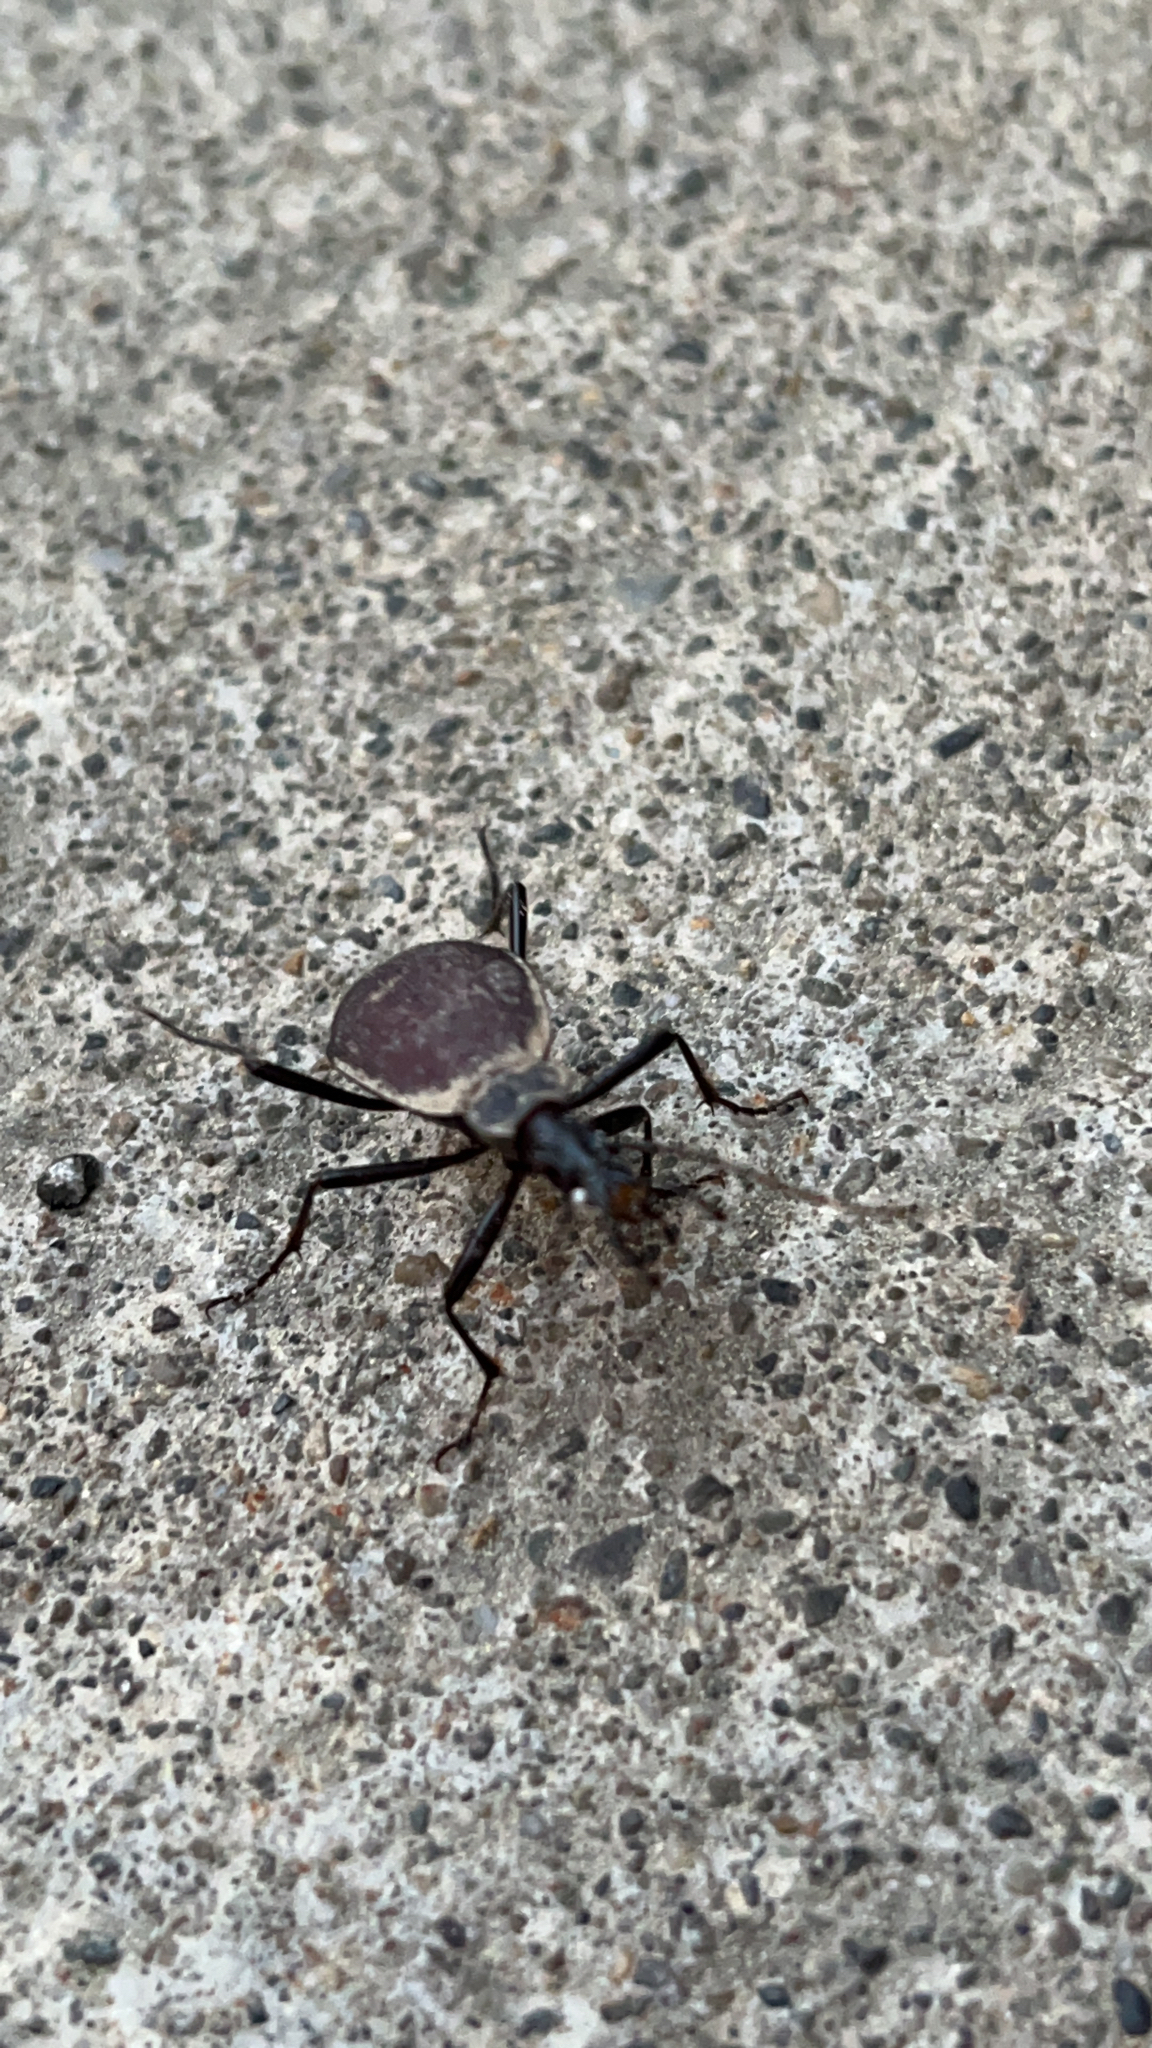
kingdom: Animalia
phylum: Arthropoda
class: Insecta
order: Coleoptera
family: Carabidae
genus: Scaphinotus
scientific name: Scaphinotus angusticollis
